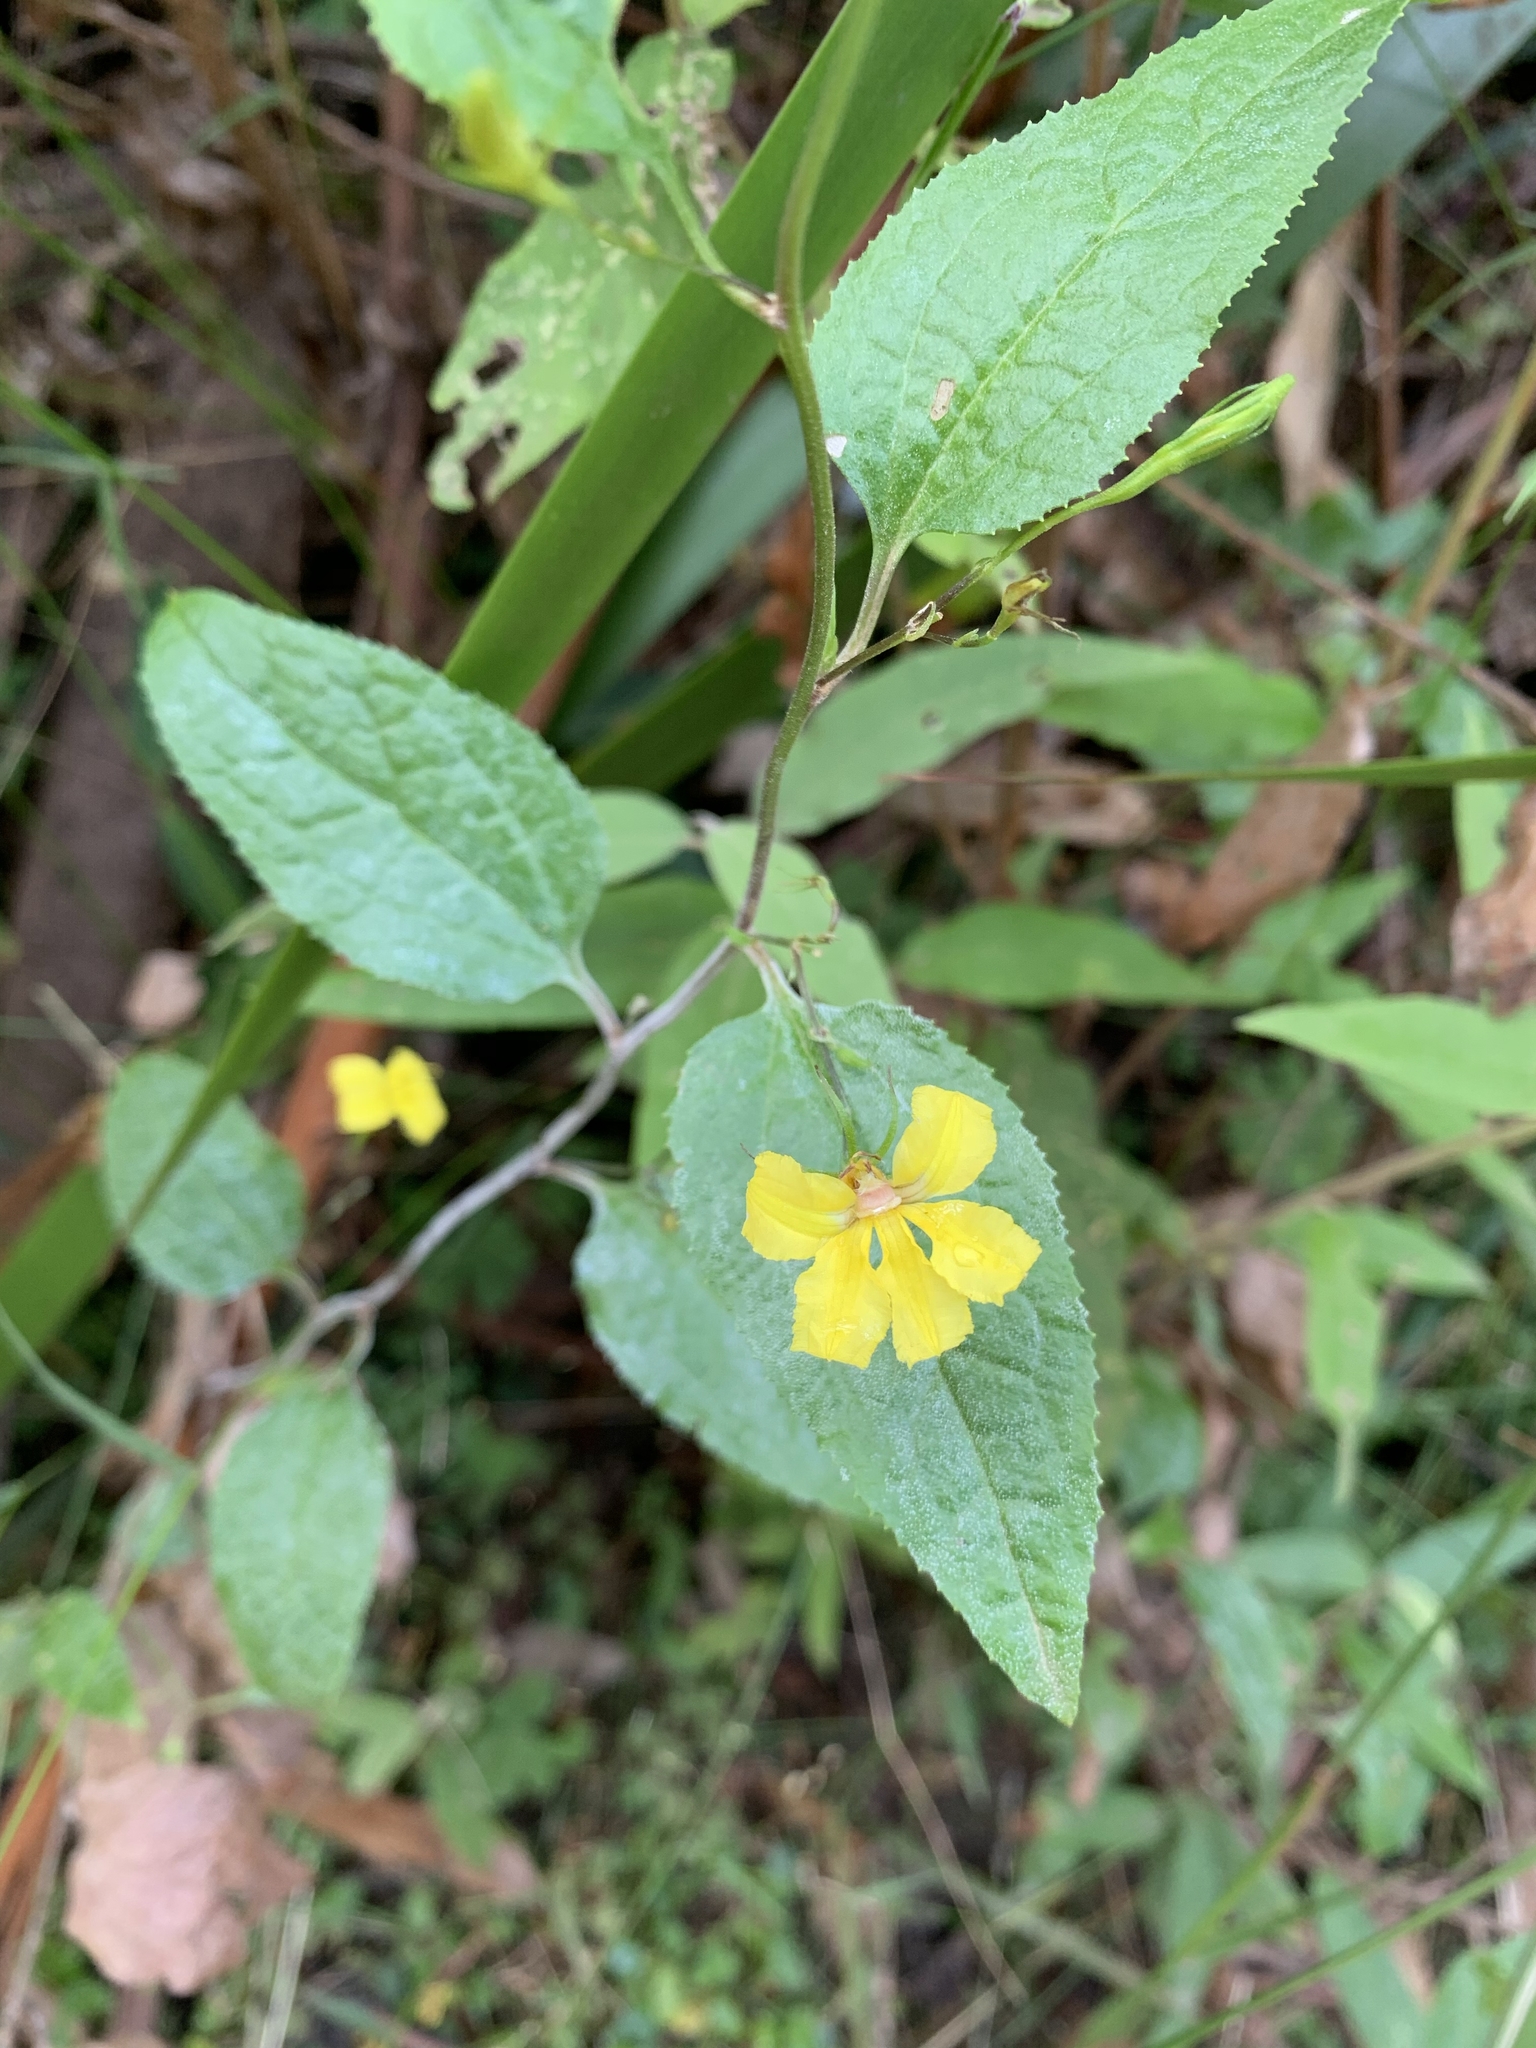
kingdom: Plantae
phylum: Tracheophyta
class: Magnoliopsida
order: Asterales
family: Goodeniaceae
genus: Goodenia
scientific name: Goodenia ovata
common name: Hop goodenia
